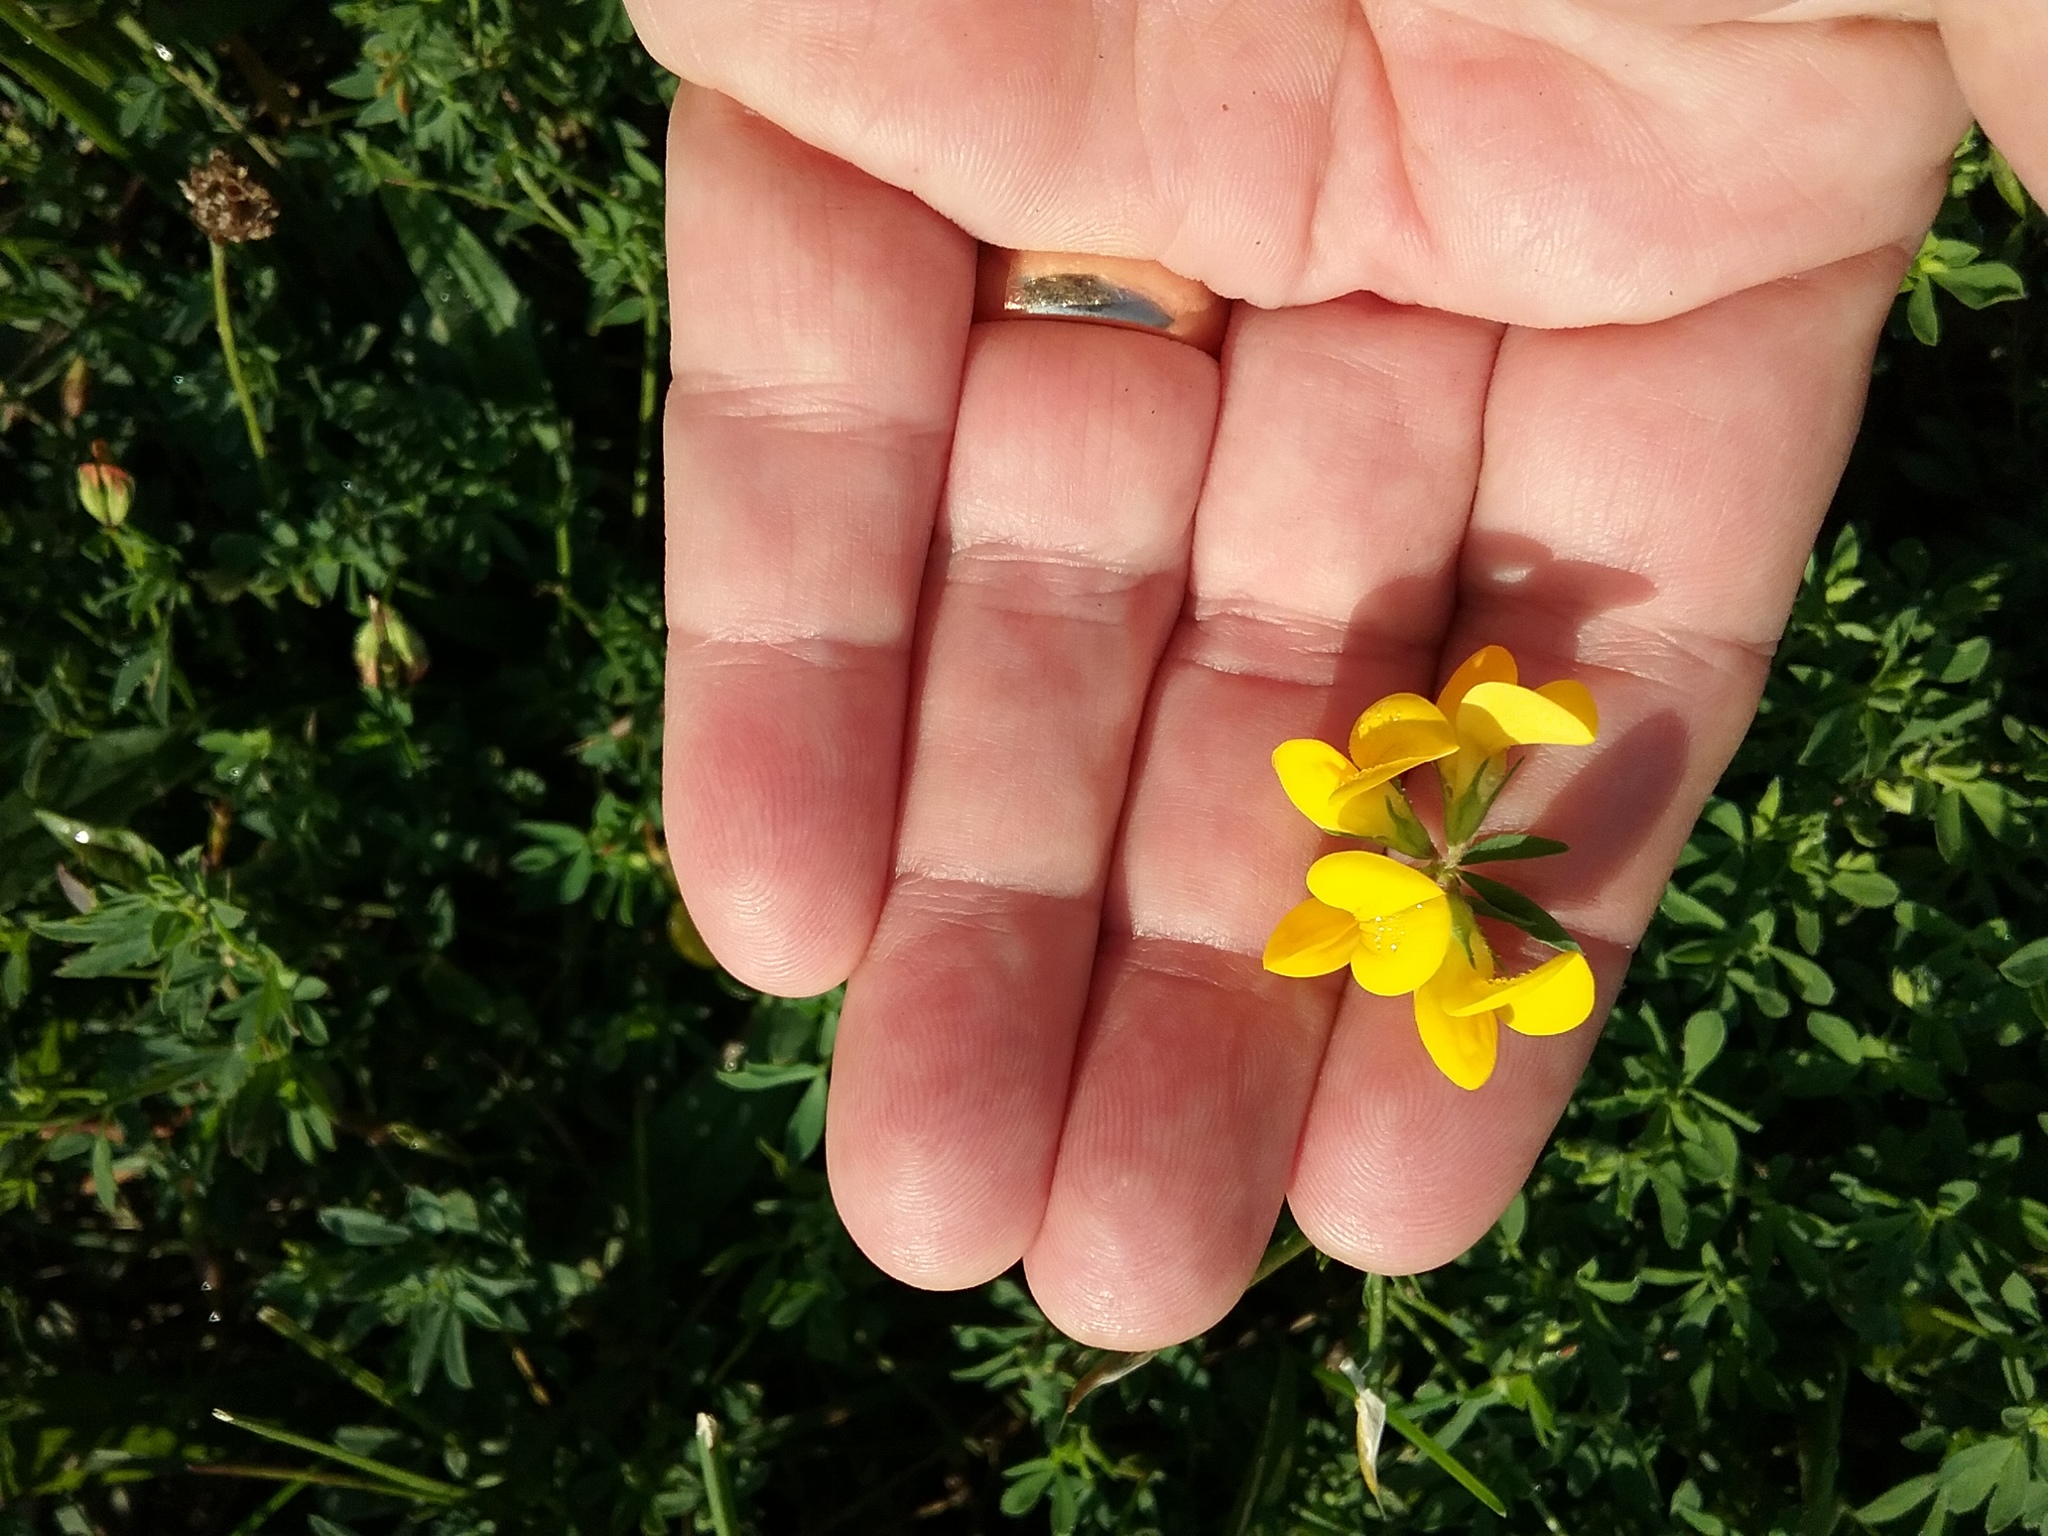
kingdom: Plantae
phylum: Tracheophyta
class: Magnoliopsida
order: Fabales
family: Fabaceae
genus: Lotus
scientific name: Lotus corniculatus
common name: Common bird's-foot-trefoil
